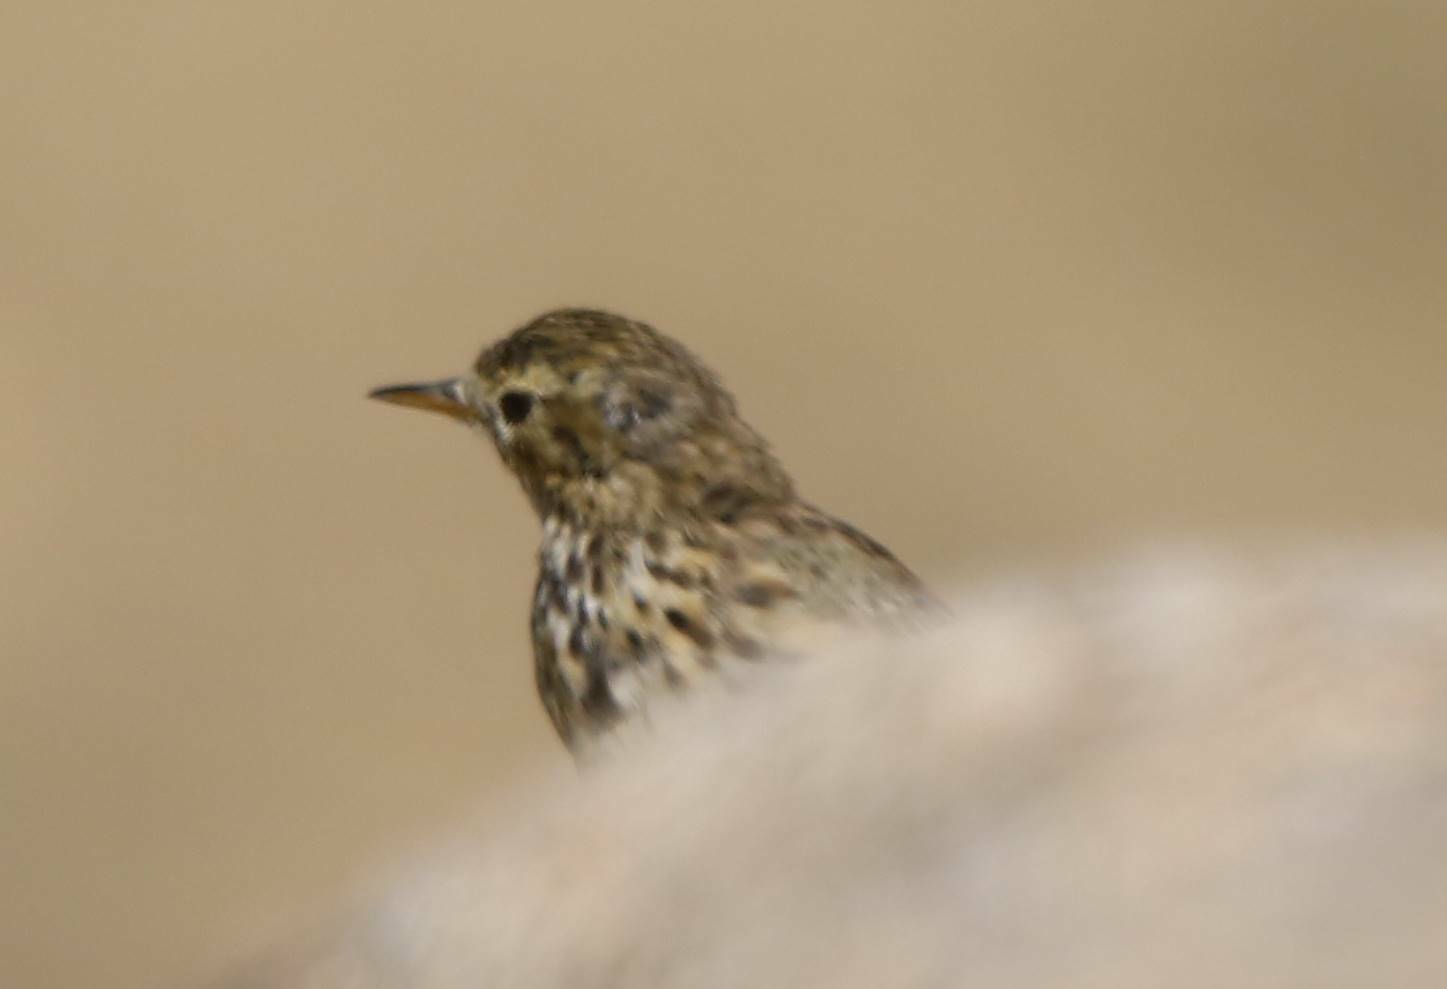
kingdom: Animalia
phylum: Chordata
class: Aves
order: Passeriformes
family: Motacillidae
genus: Anthus
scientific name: Anthus pratensis
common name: Meadow pipit
